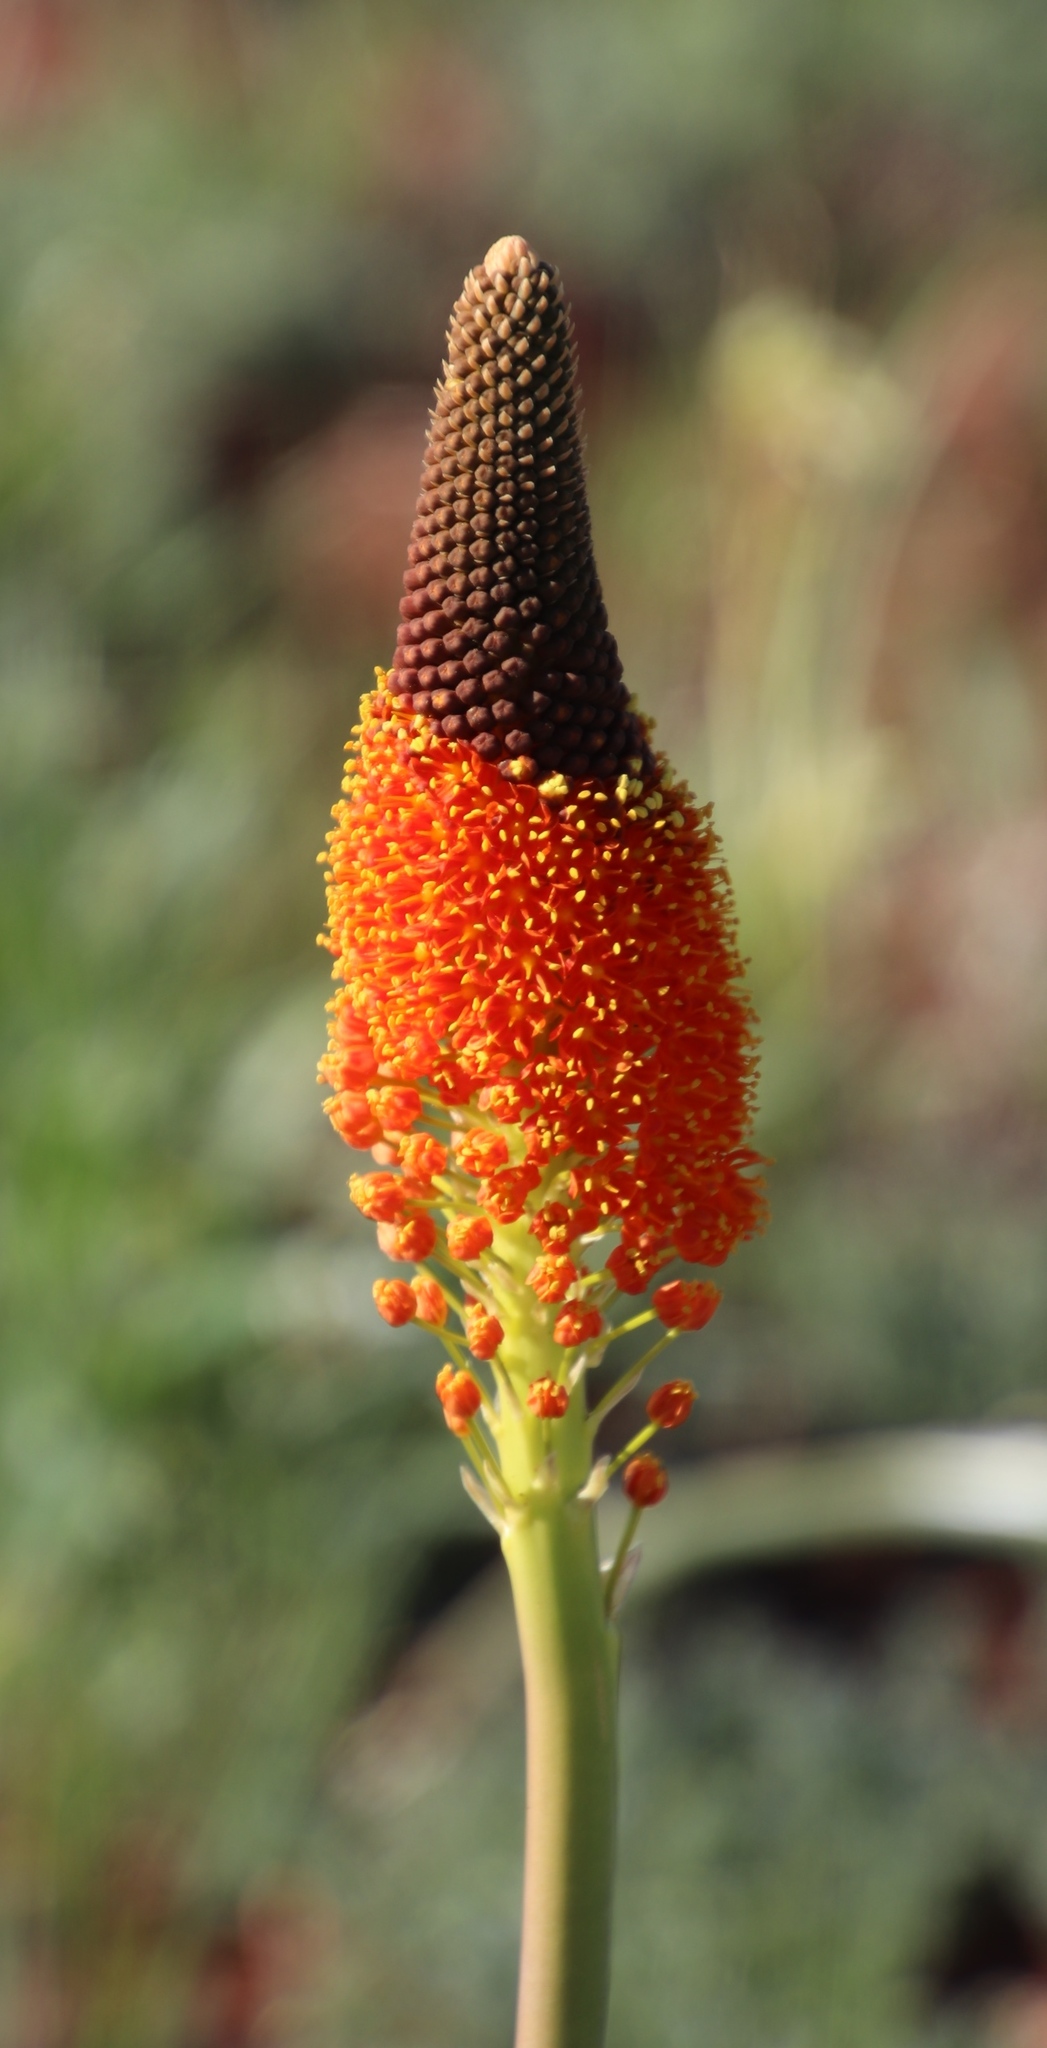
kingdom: Plantae
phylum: Tracheophyta
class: Liliopsida
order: Asparagales
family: Asphodelaceae
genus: Bulbinella
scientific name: Bulbinella latifolia
